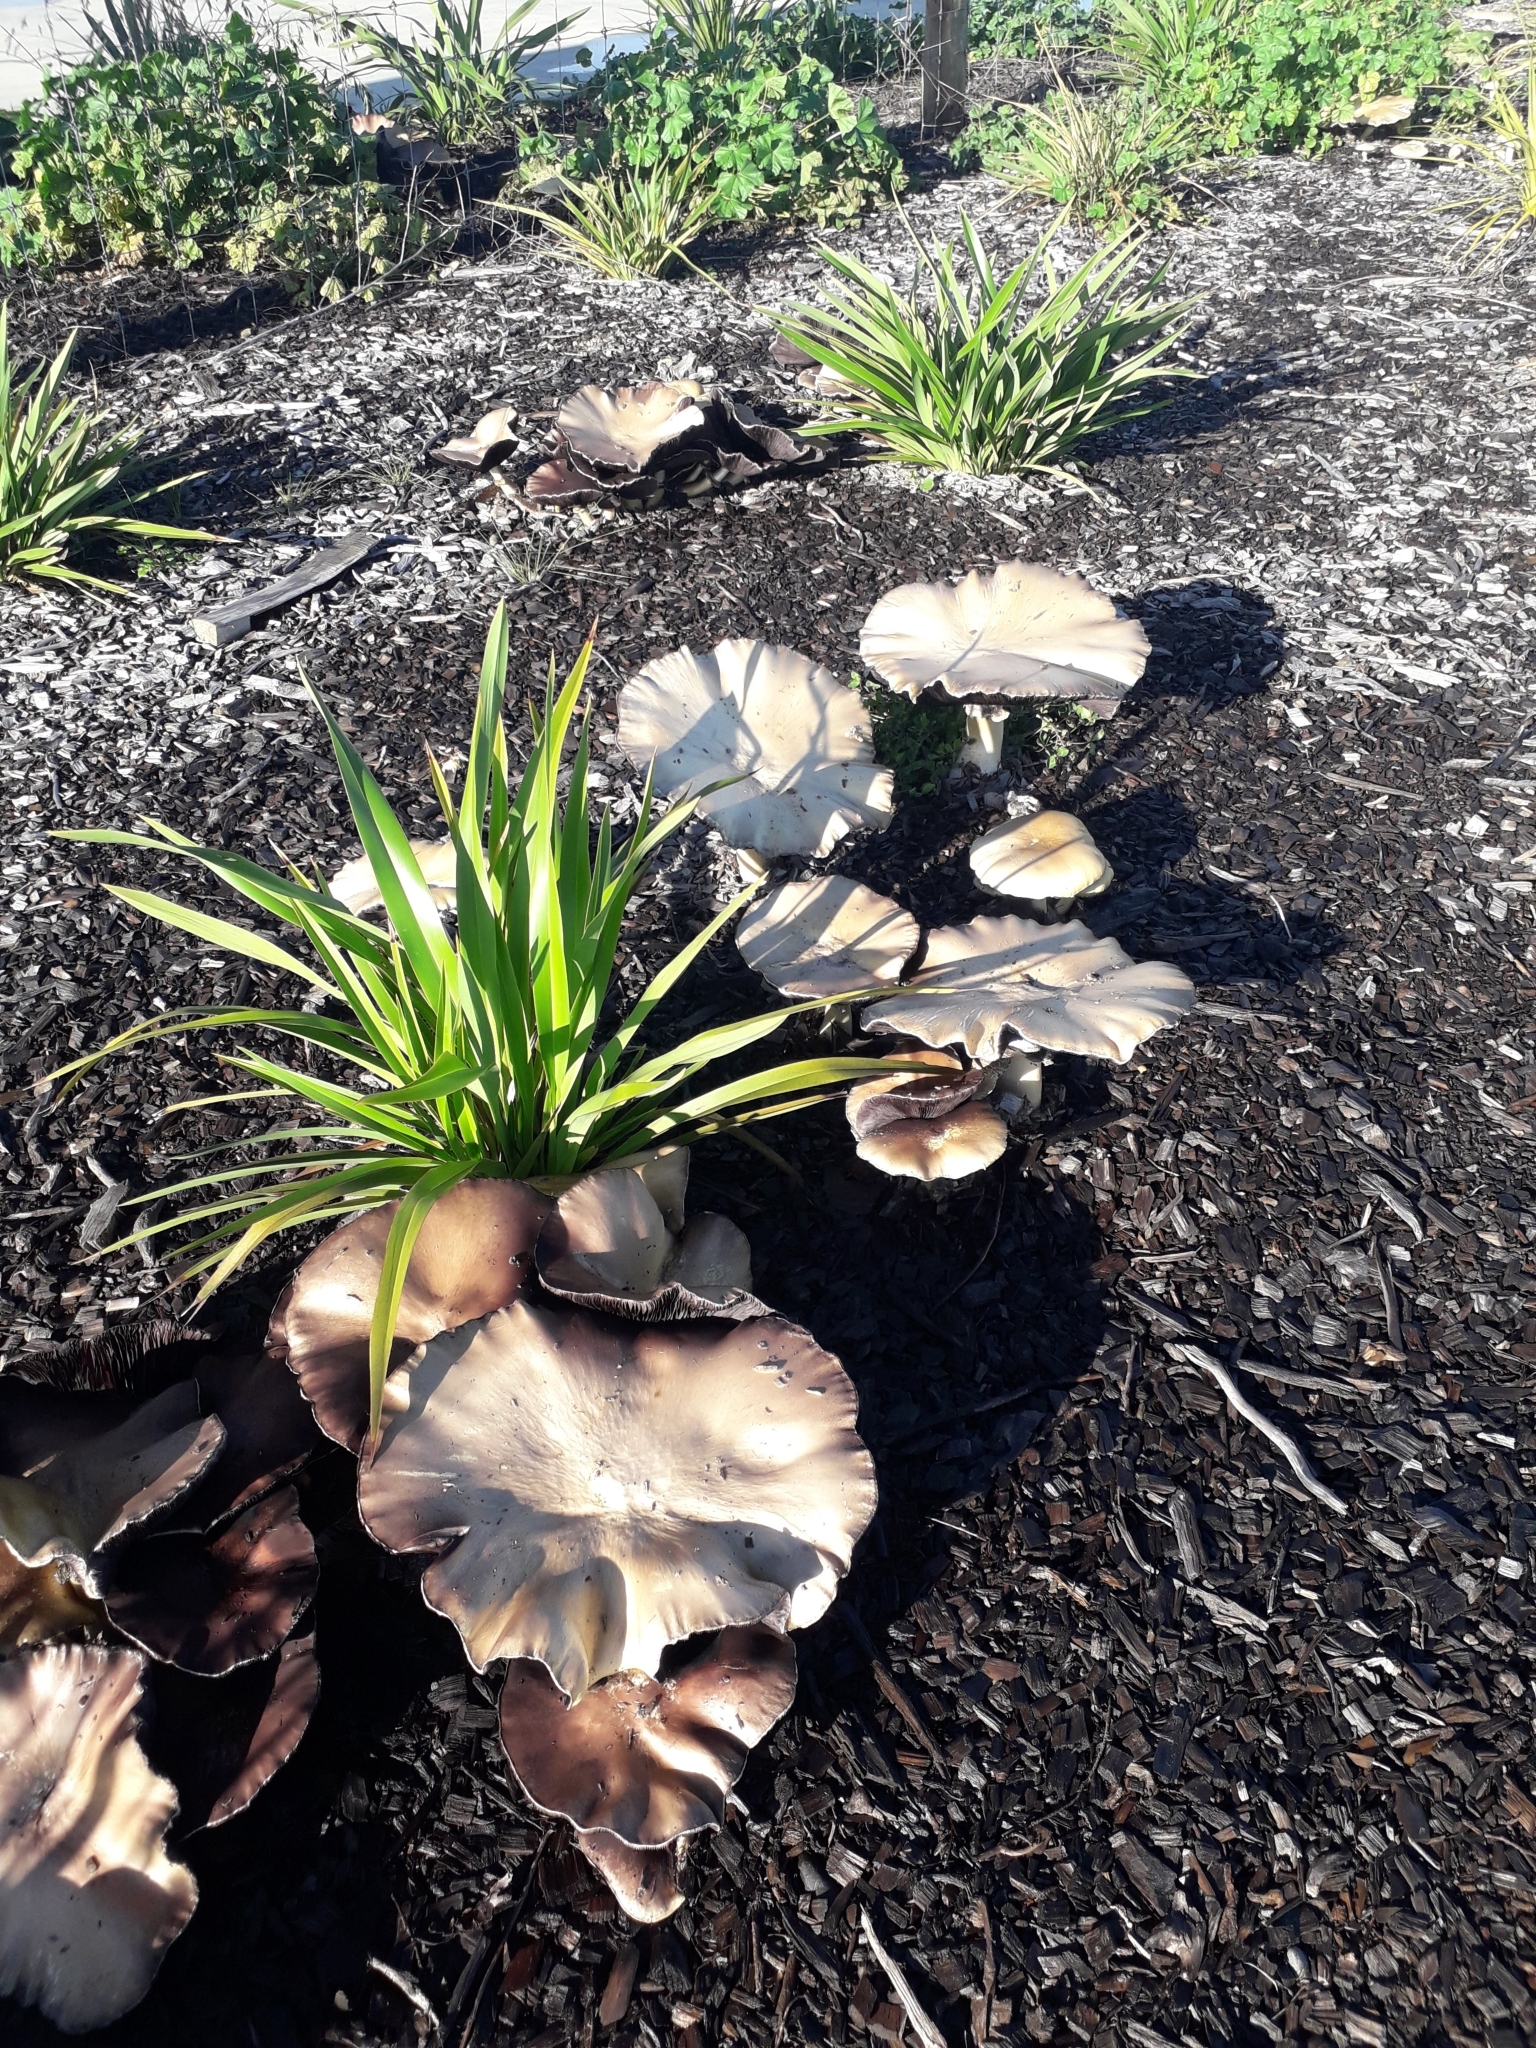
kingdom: Fungi
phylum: Basidiomycota
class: Agaricomycetes
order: Agaricales
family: Strophariaceae
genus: Stropharia
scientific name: Stropharia rugosoannulata
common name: Wine roundhead
